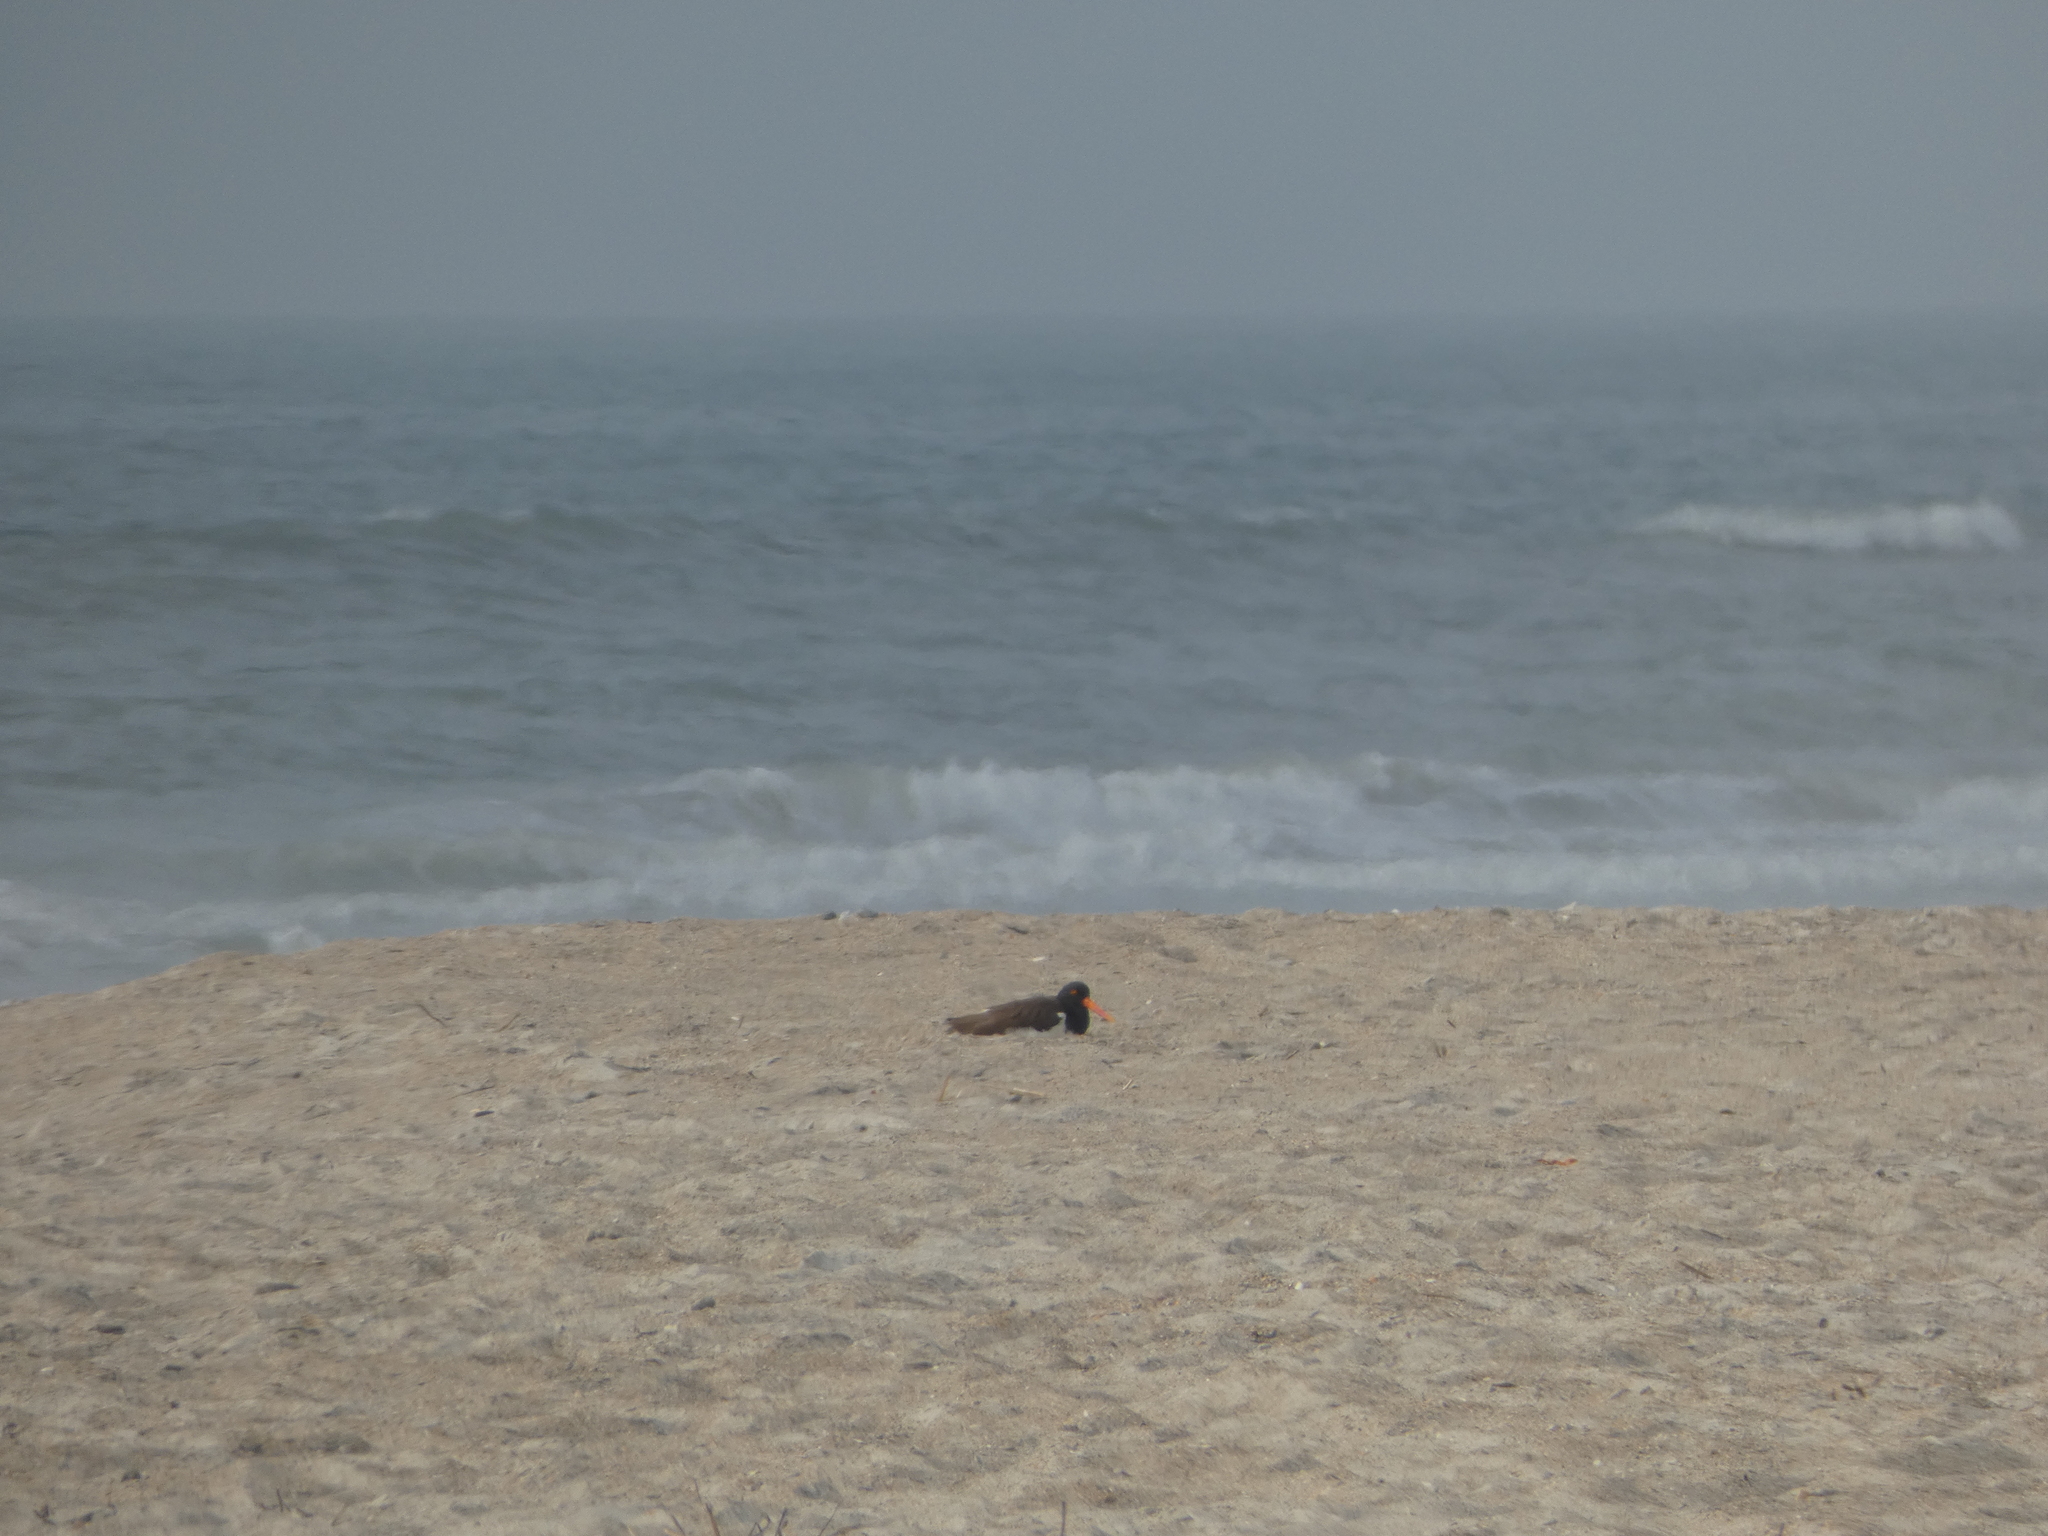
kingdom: Animalia
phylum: Chordata
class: Aves
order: Charadriiformes
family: Haematopodidae
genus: Haematopus
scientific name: Haematopus palliatus
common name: American oystercatcher
